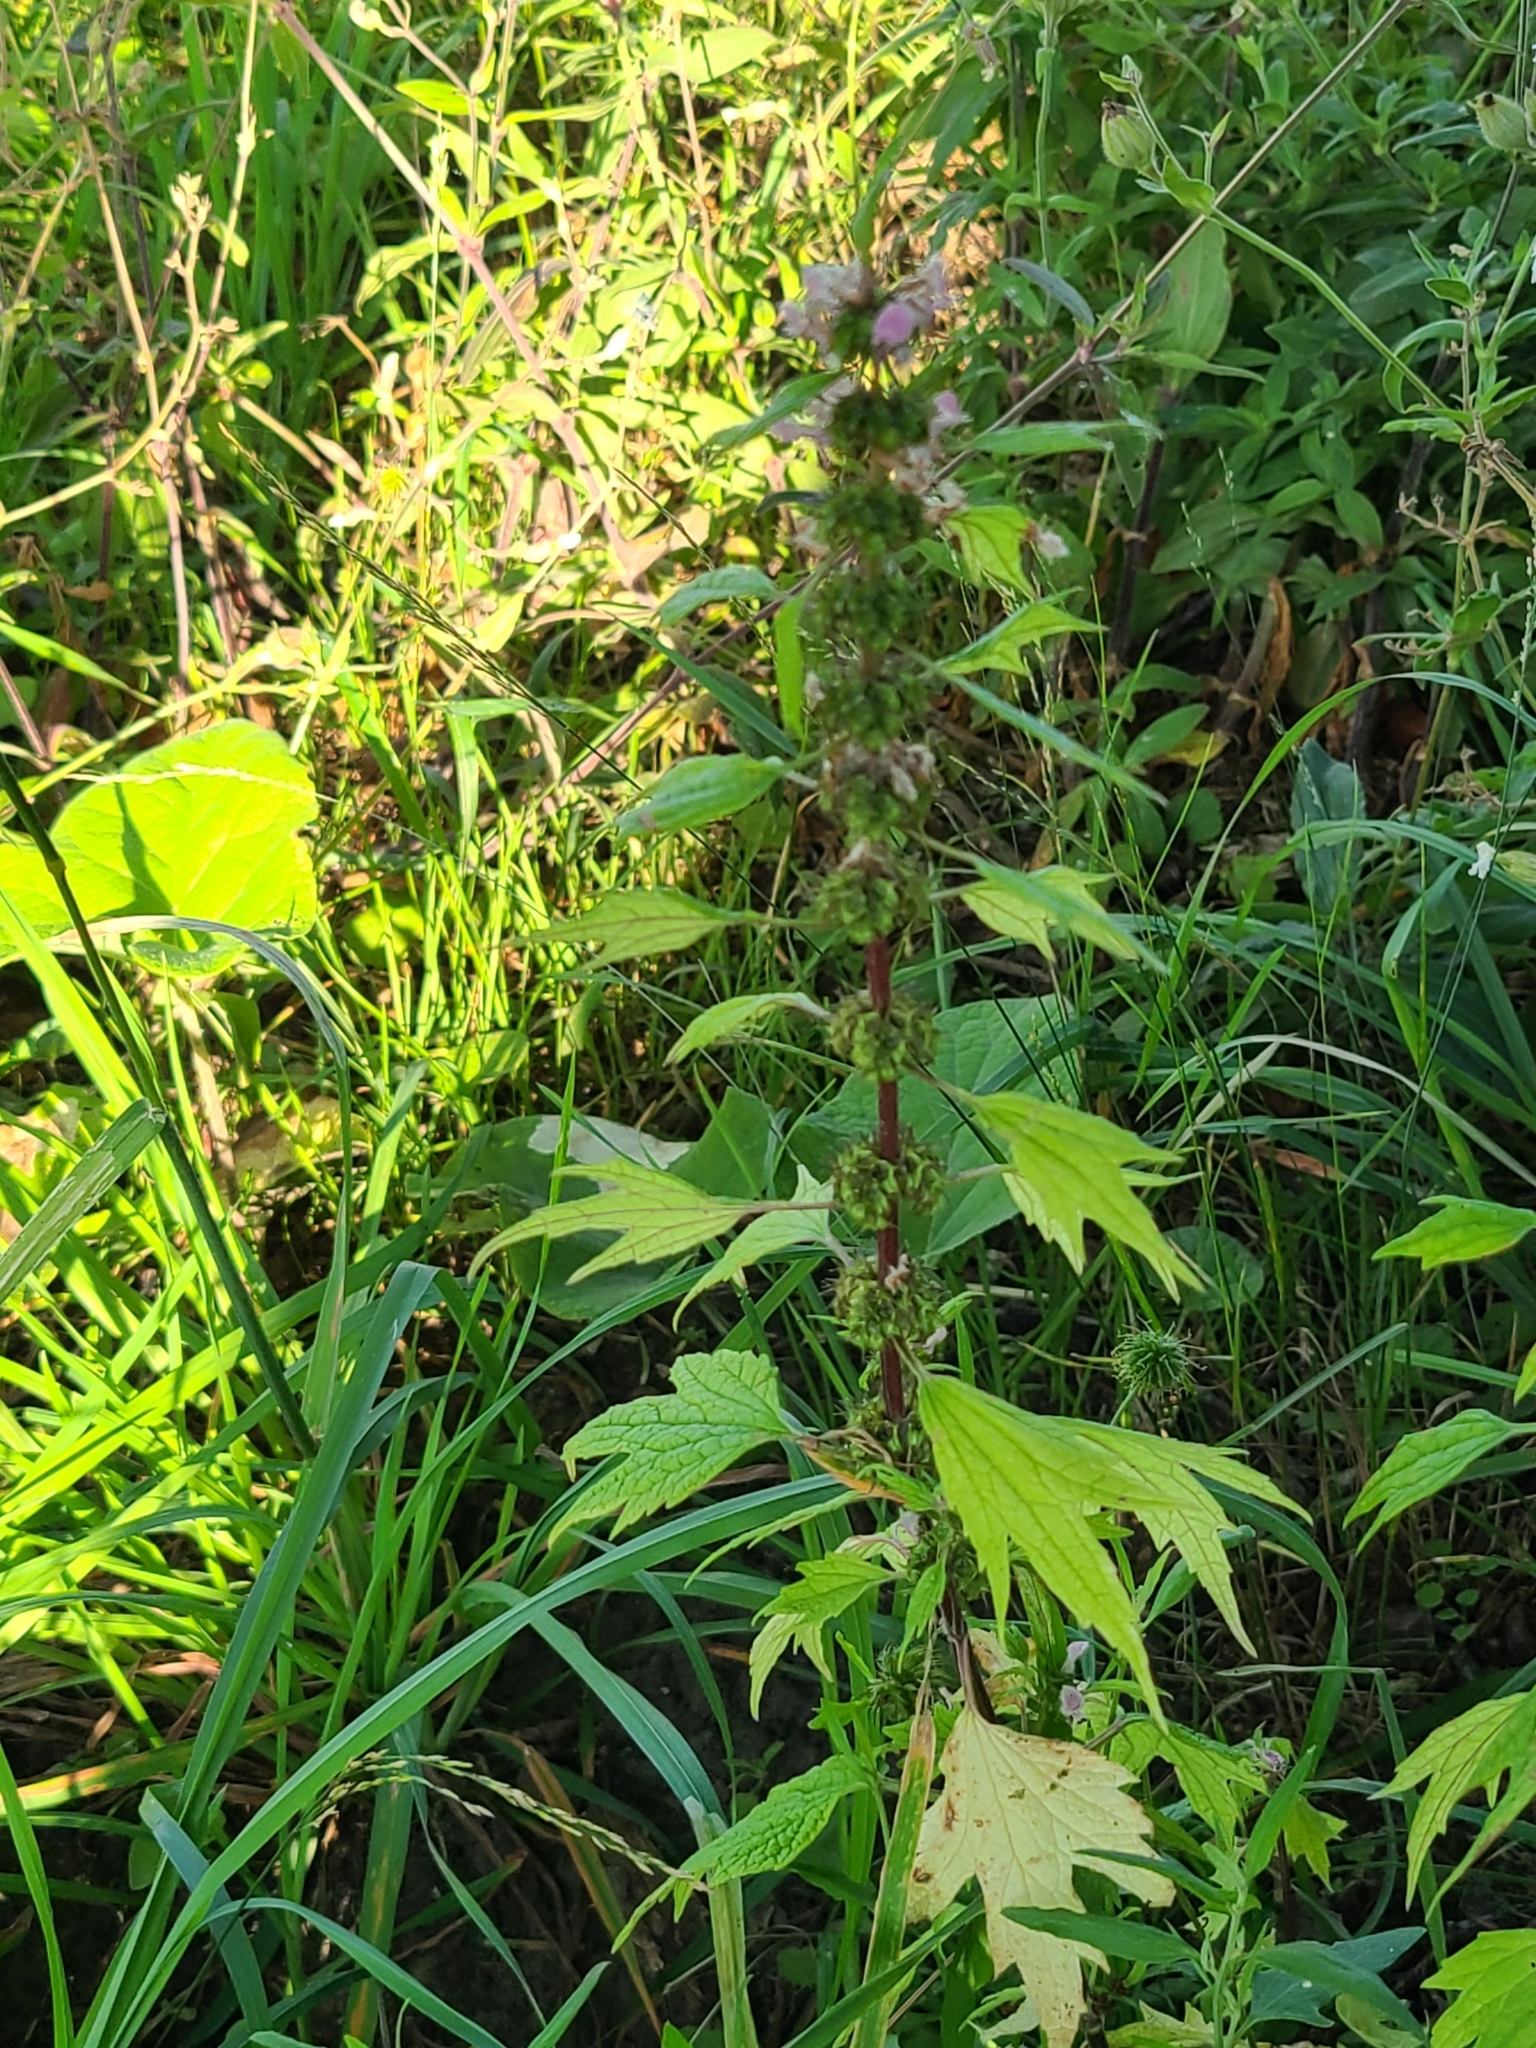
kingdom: Plantae
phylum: Tracheophyta
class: Magnoliopsida
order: Lamiales
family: Lamiaceae
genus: Leonurus
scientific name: Leonurus cardiaca
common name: Motherwort
